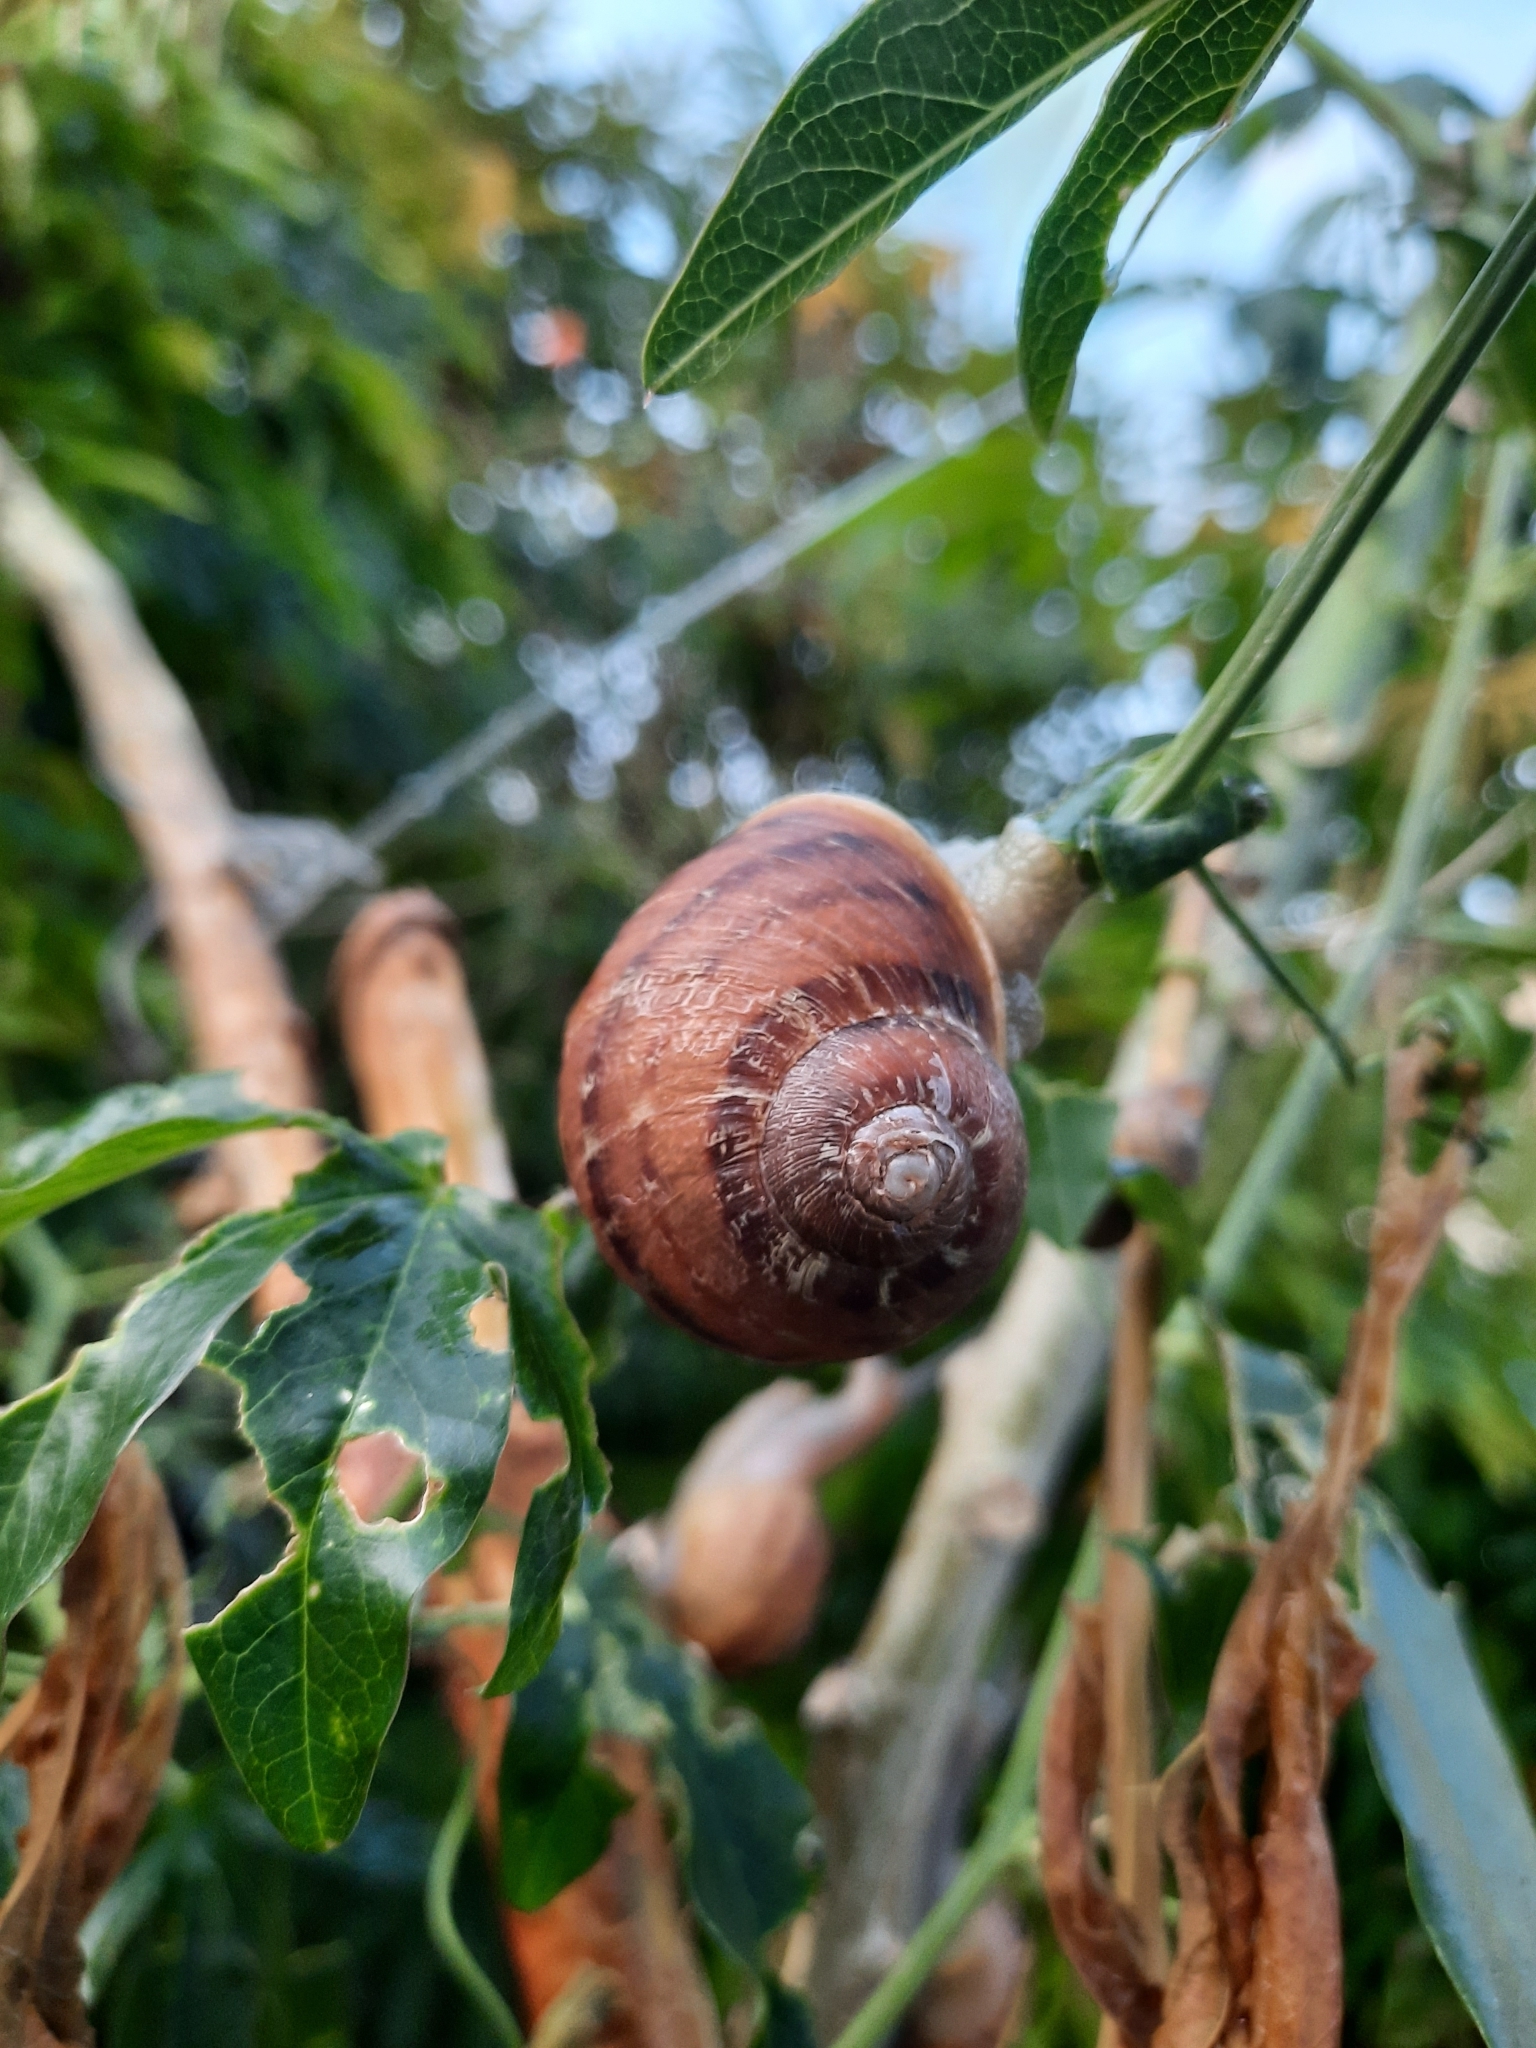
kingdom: Animalia
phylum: Mollusca
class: Gastropoda
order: Stylommatophora
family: Helicidae
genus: Cornu
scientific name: Cornu aspersum
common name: Brown garden snail
